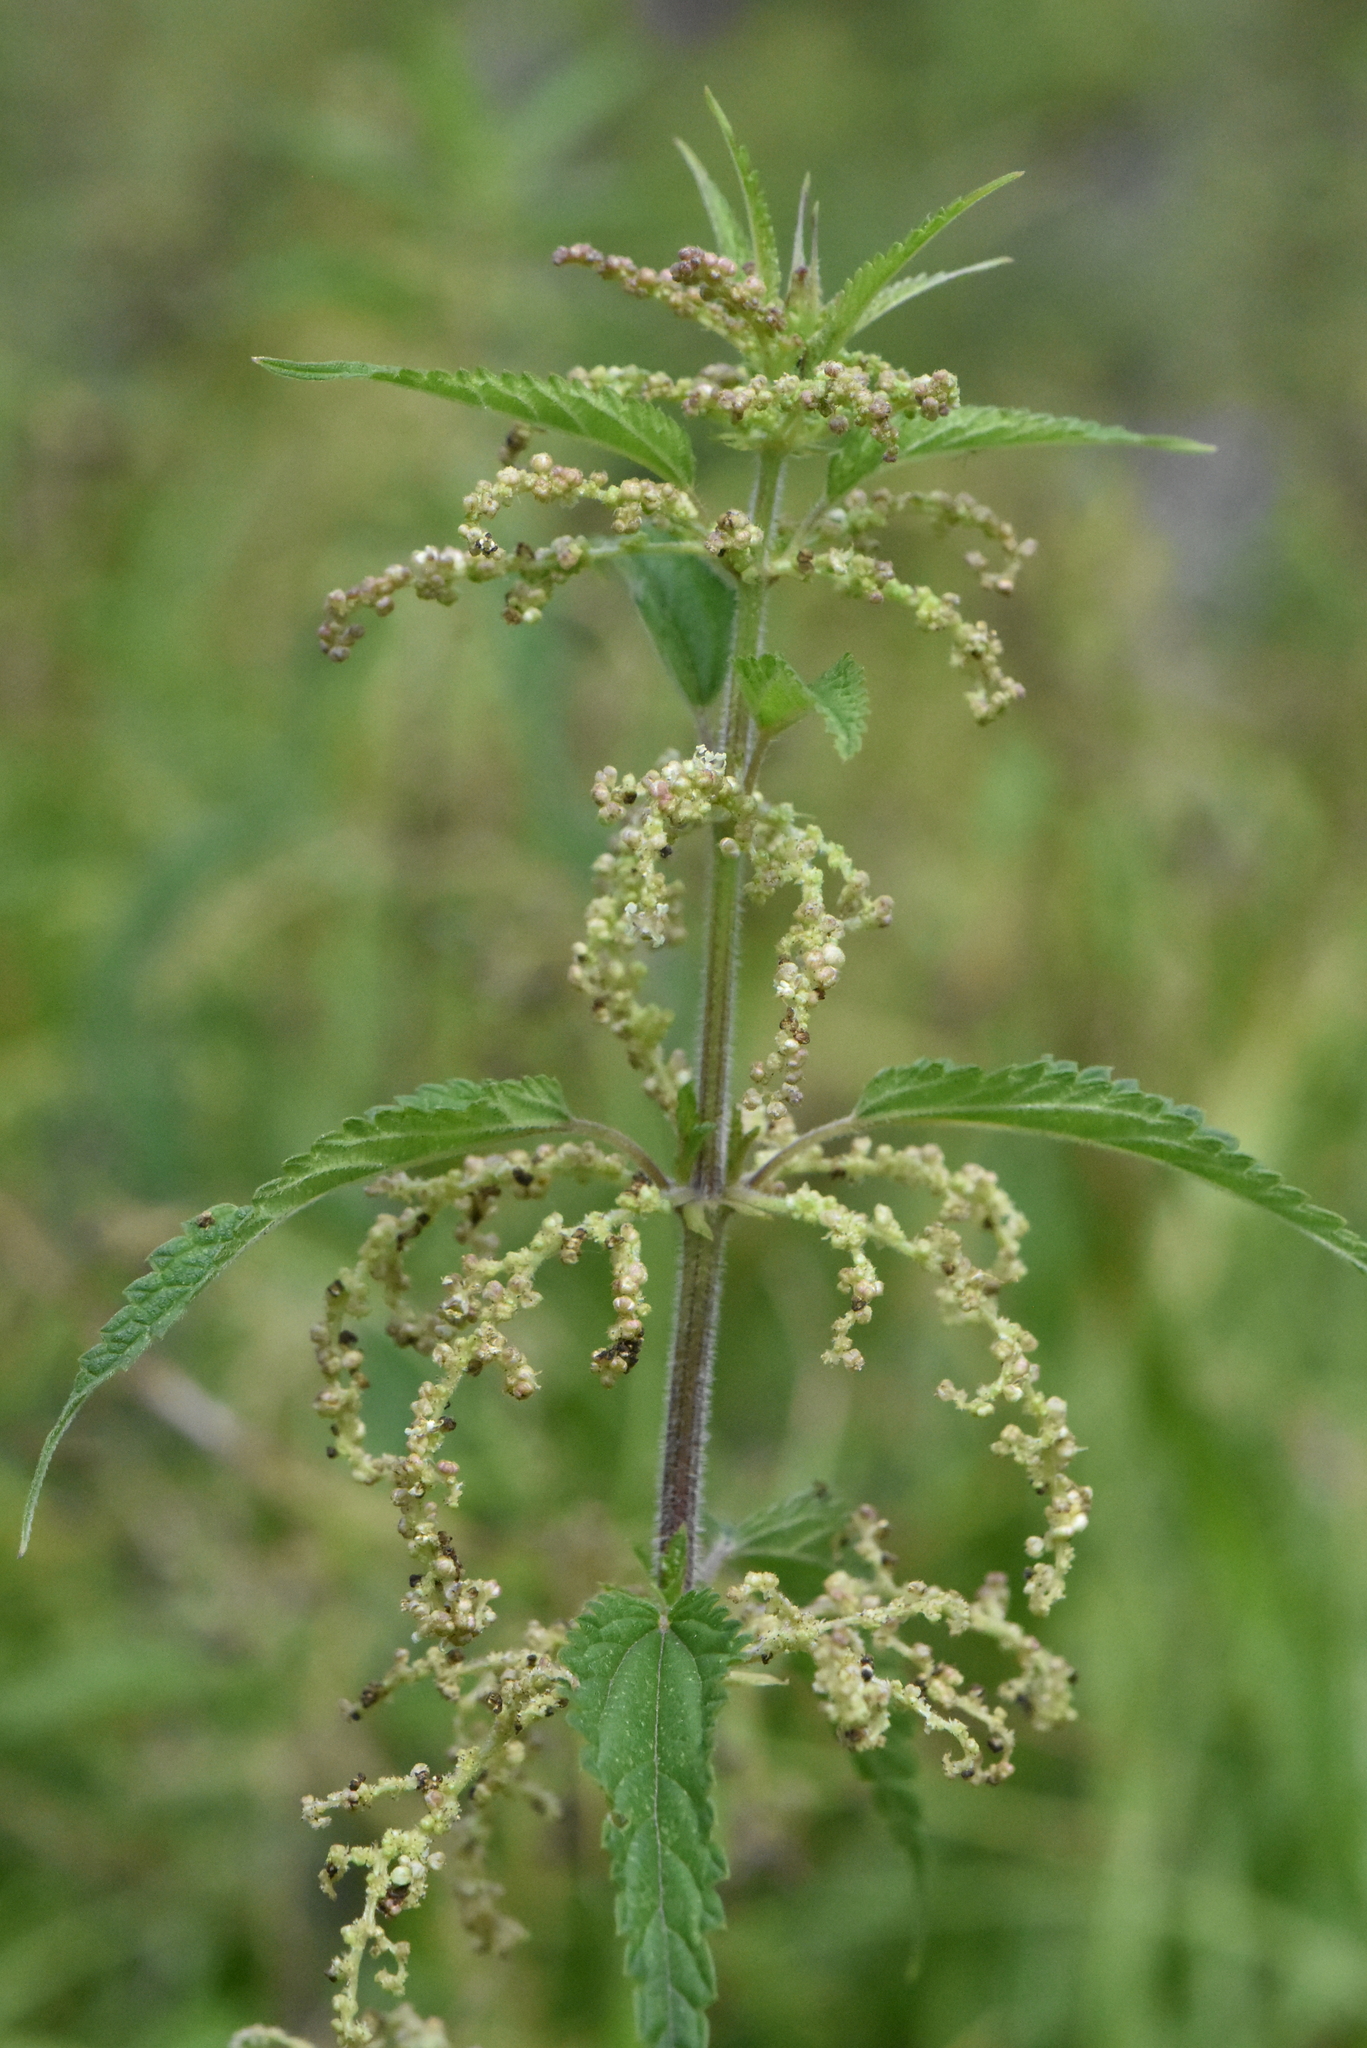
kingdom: Plantae
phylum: Tracheophyta
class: Magnoliopsida
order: Rosales
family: Urticaceae
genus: Urtica
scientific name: Urtica dioica
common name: Common nettle
